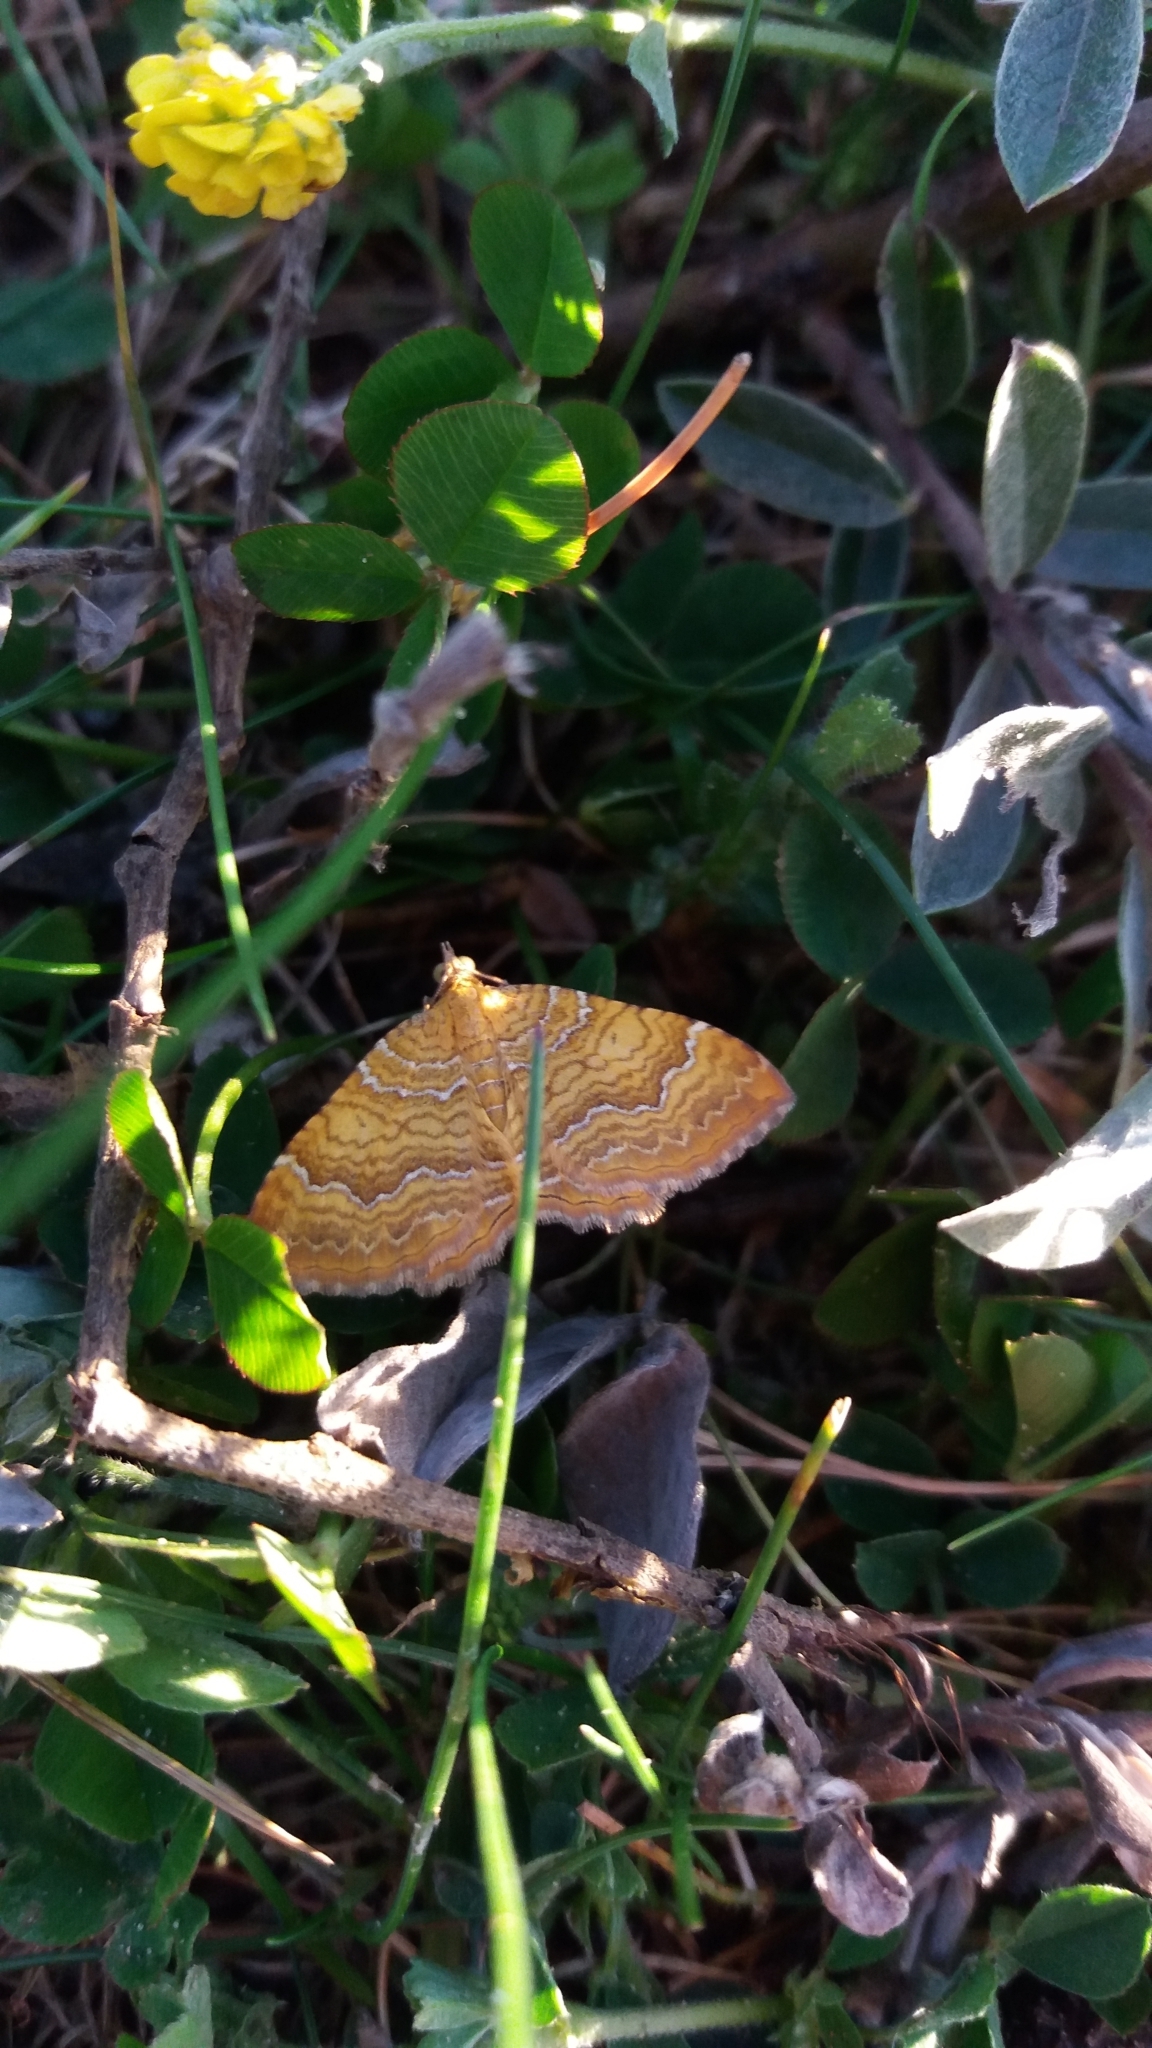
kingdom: Animalia
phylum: Arthropoda
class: Insecta
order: Lepidoptera
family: Geometridae
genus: Camptogramma
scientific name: Camptogramma bilineata
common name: Yellow shell
